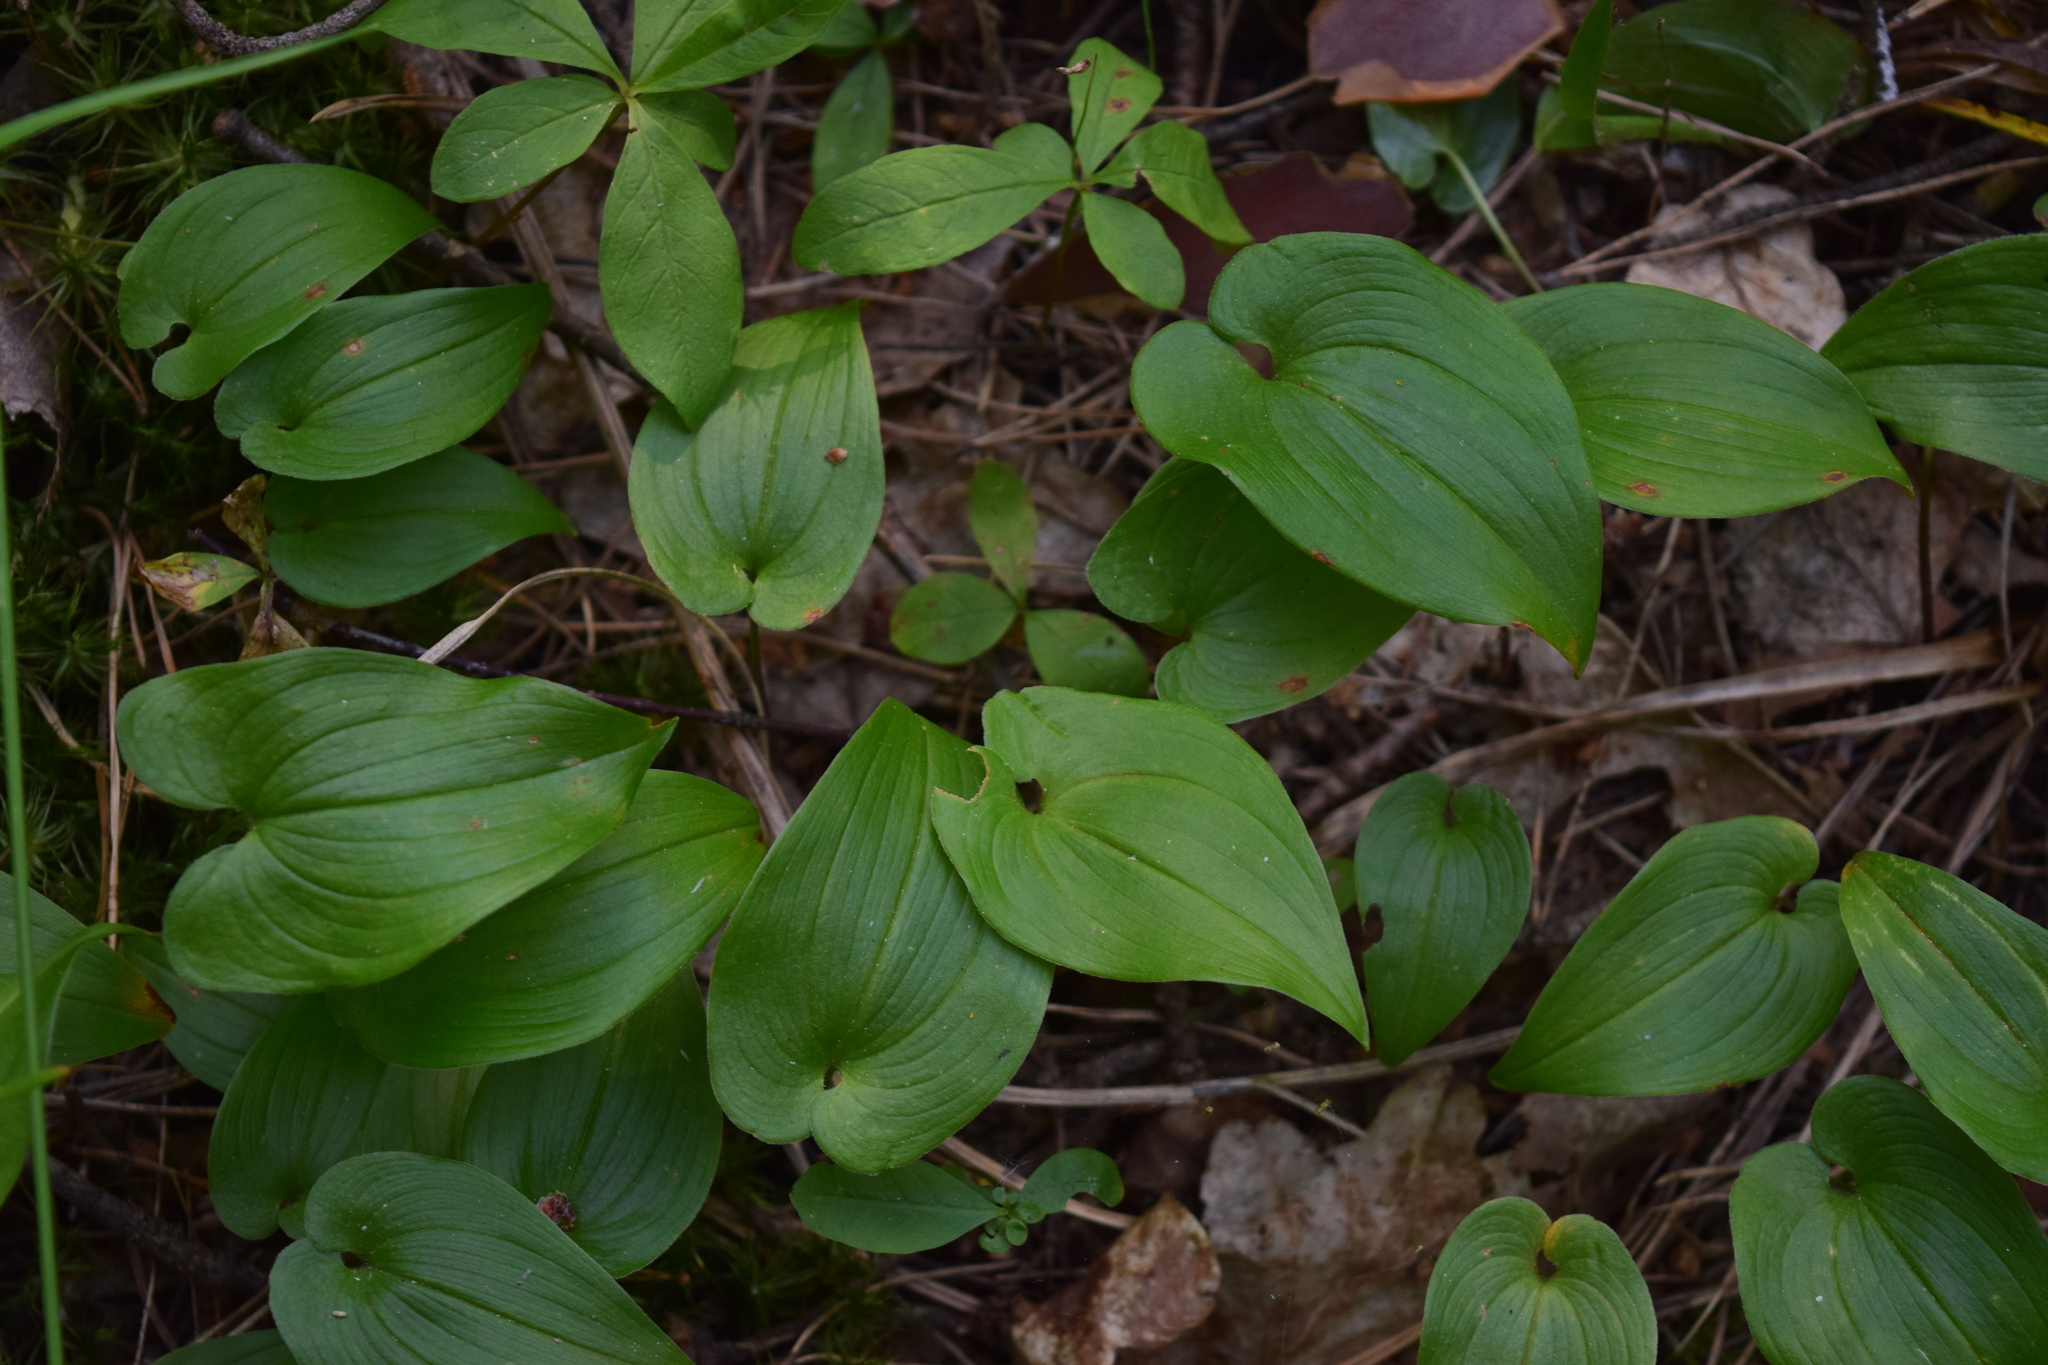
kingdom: Plantae
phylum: Tracheophyta
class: Liliopsida
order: Asparagales
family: Asparagaceae
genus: Maianthemum
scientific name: Maianthemum bifolium
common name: May lily
